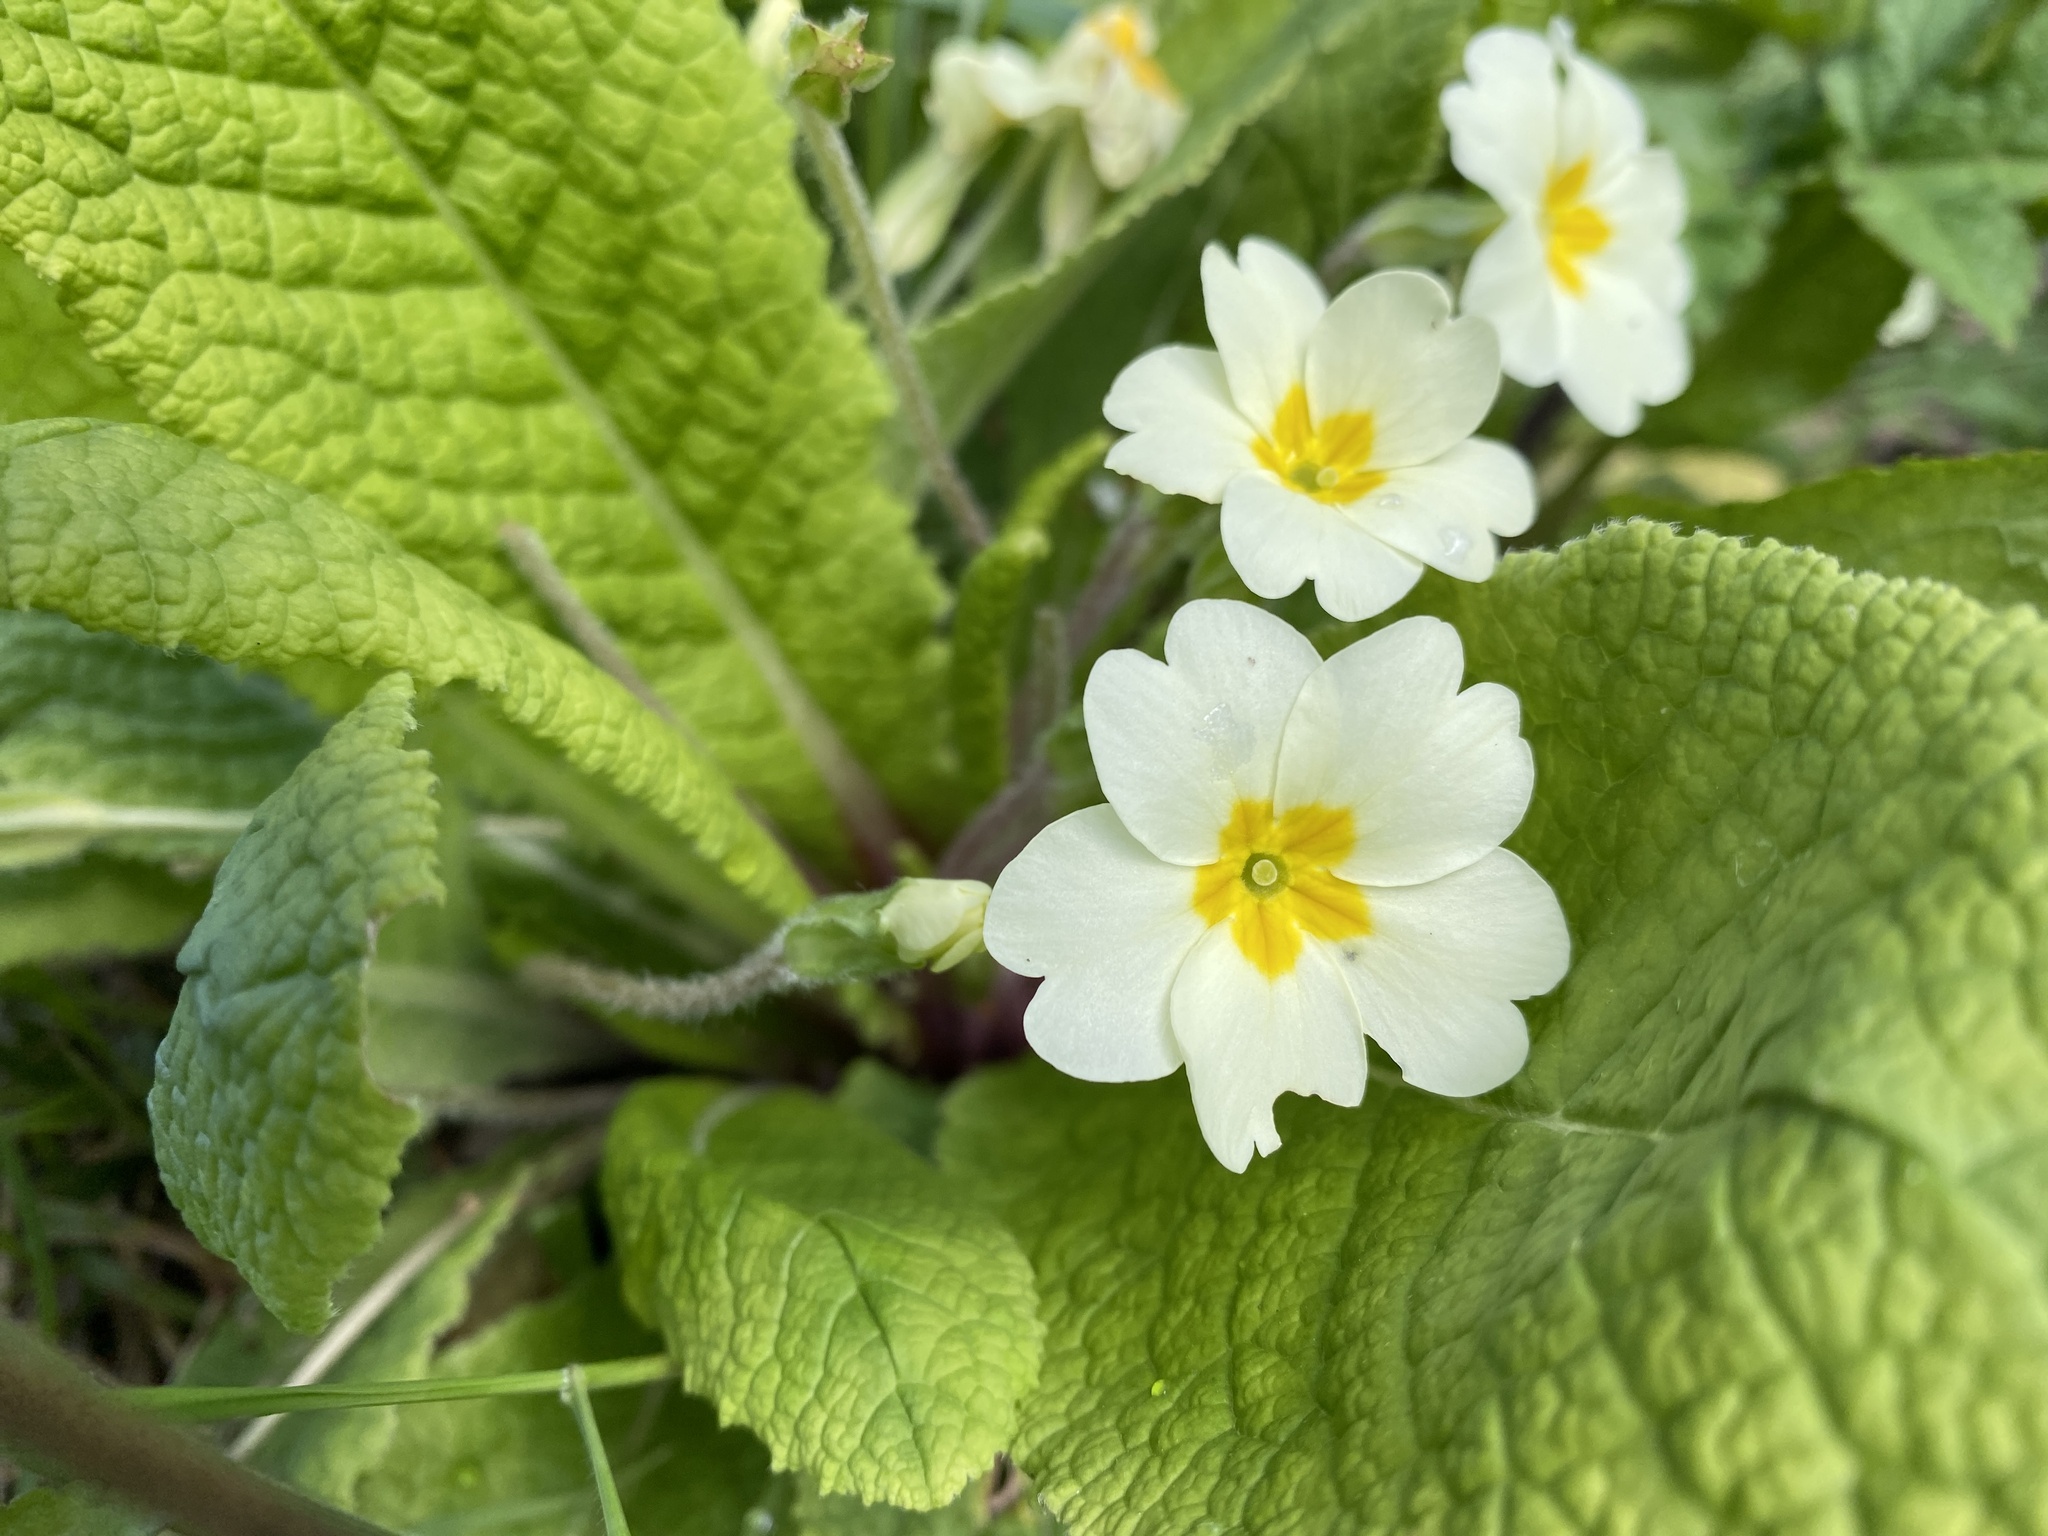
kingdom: Plantae
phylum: Tracheophyta
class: Magnoliopsida
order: Ericales
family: Primulaceae
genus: Primula
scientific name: Primula vulgaris
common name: Primrose
